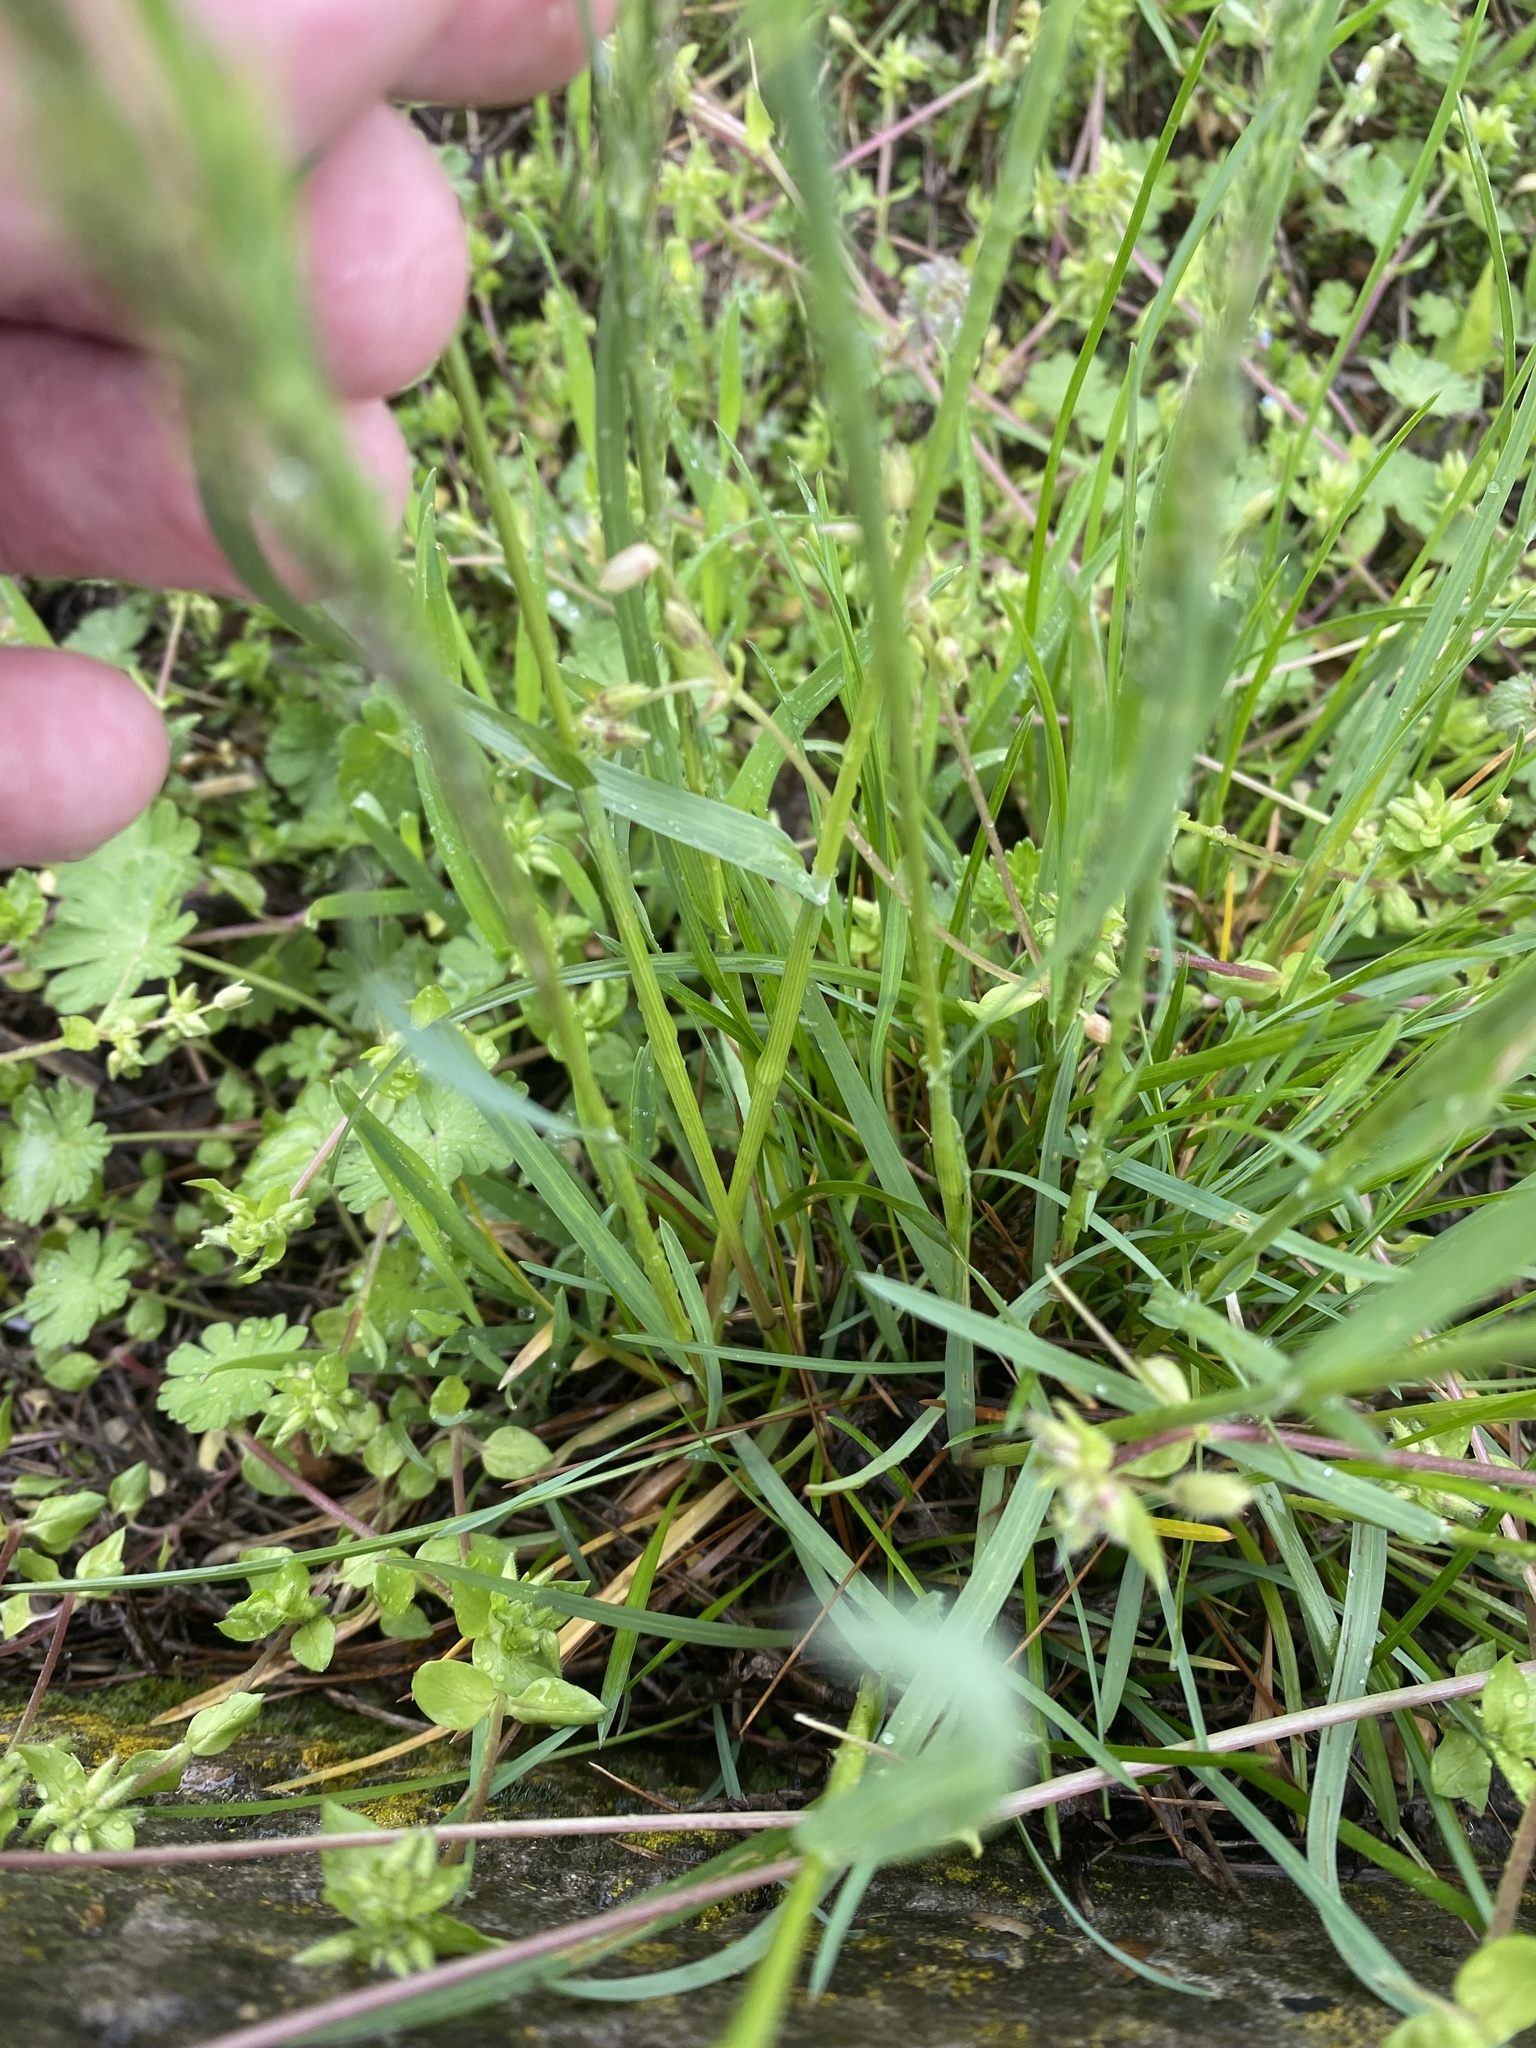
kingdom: Plantae
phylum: Tracheophyta
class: Liliopsida
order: Poales
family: Poaceae
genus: Poa
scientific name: Poa bulbosa
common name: Bulbous bluegrass
